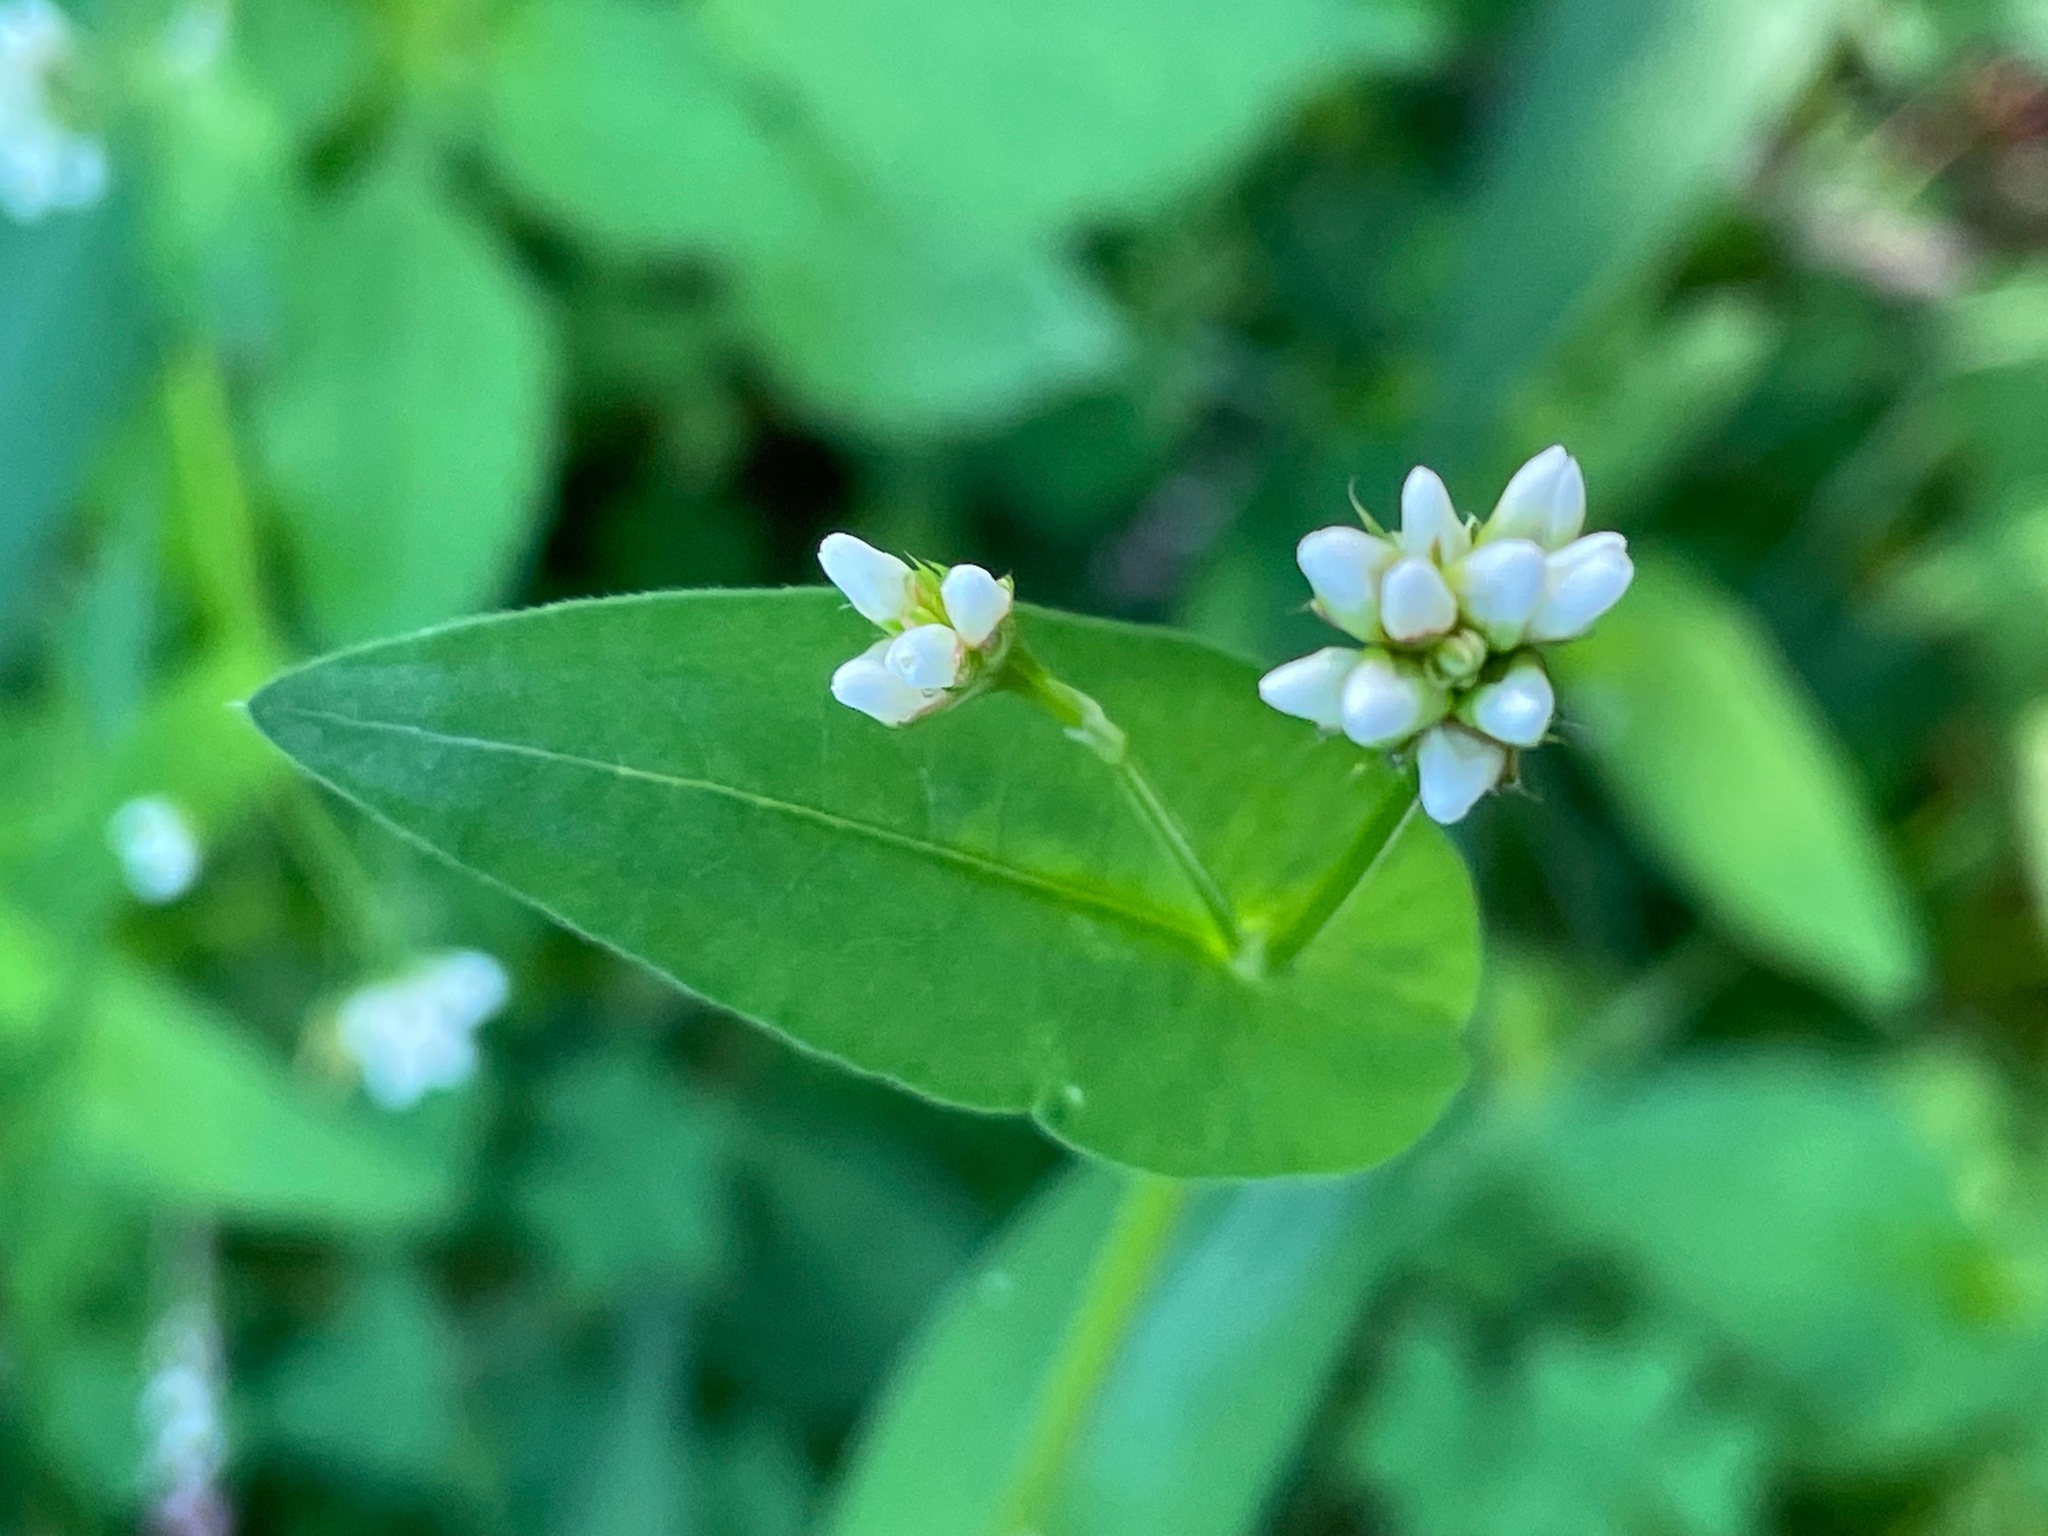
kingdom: Plantae
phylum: Tracheophyta
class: Magnoliopsida
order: Caryophyllales
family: Polygonaceae
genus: Persicaria
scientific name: Persicaria sagittata
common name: American tearthumb
